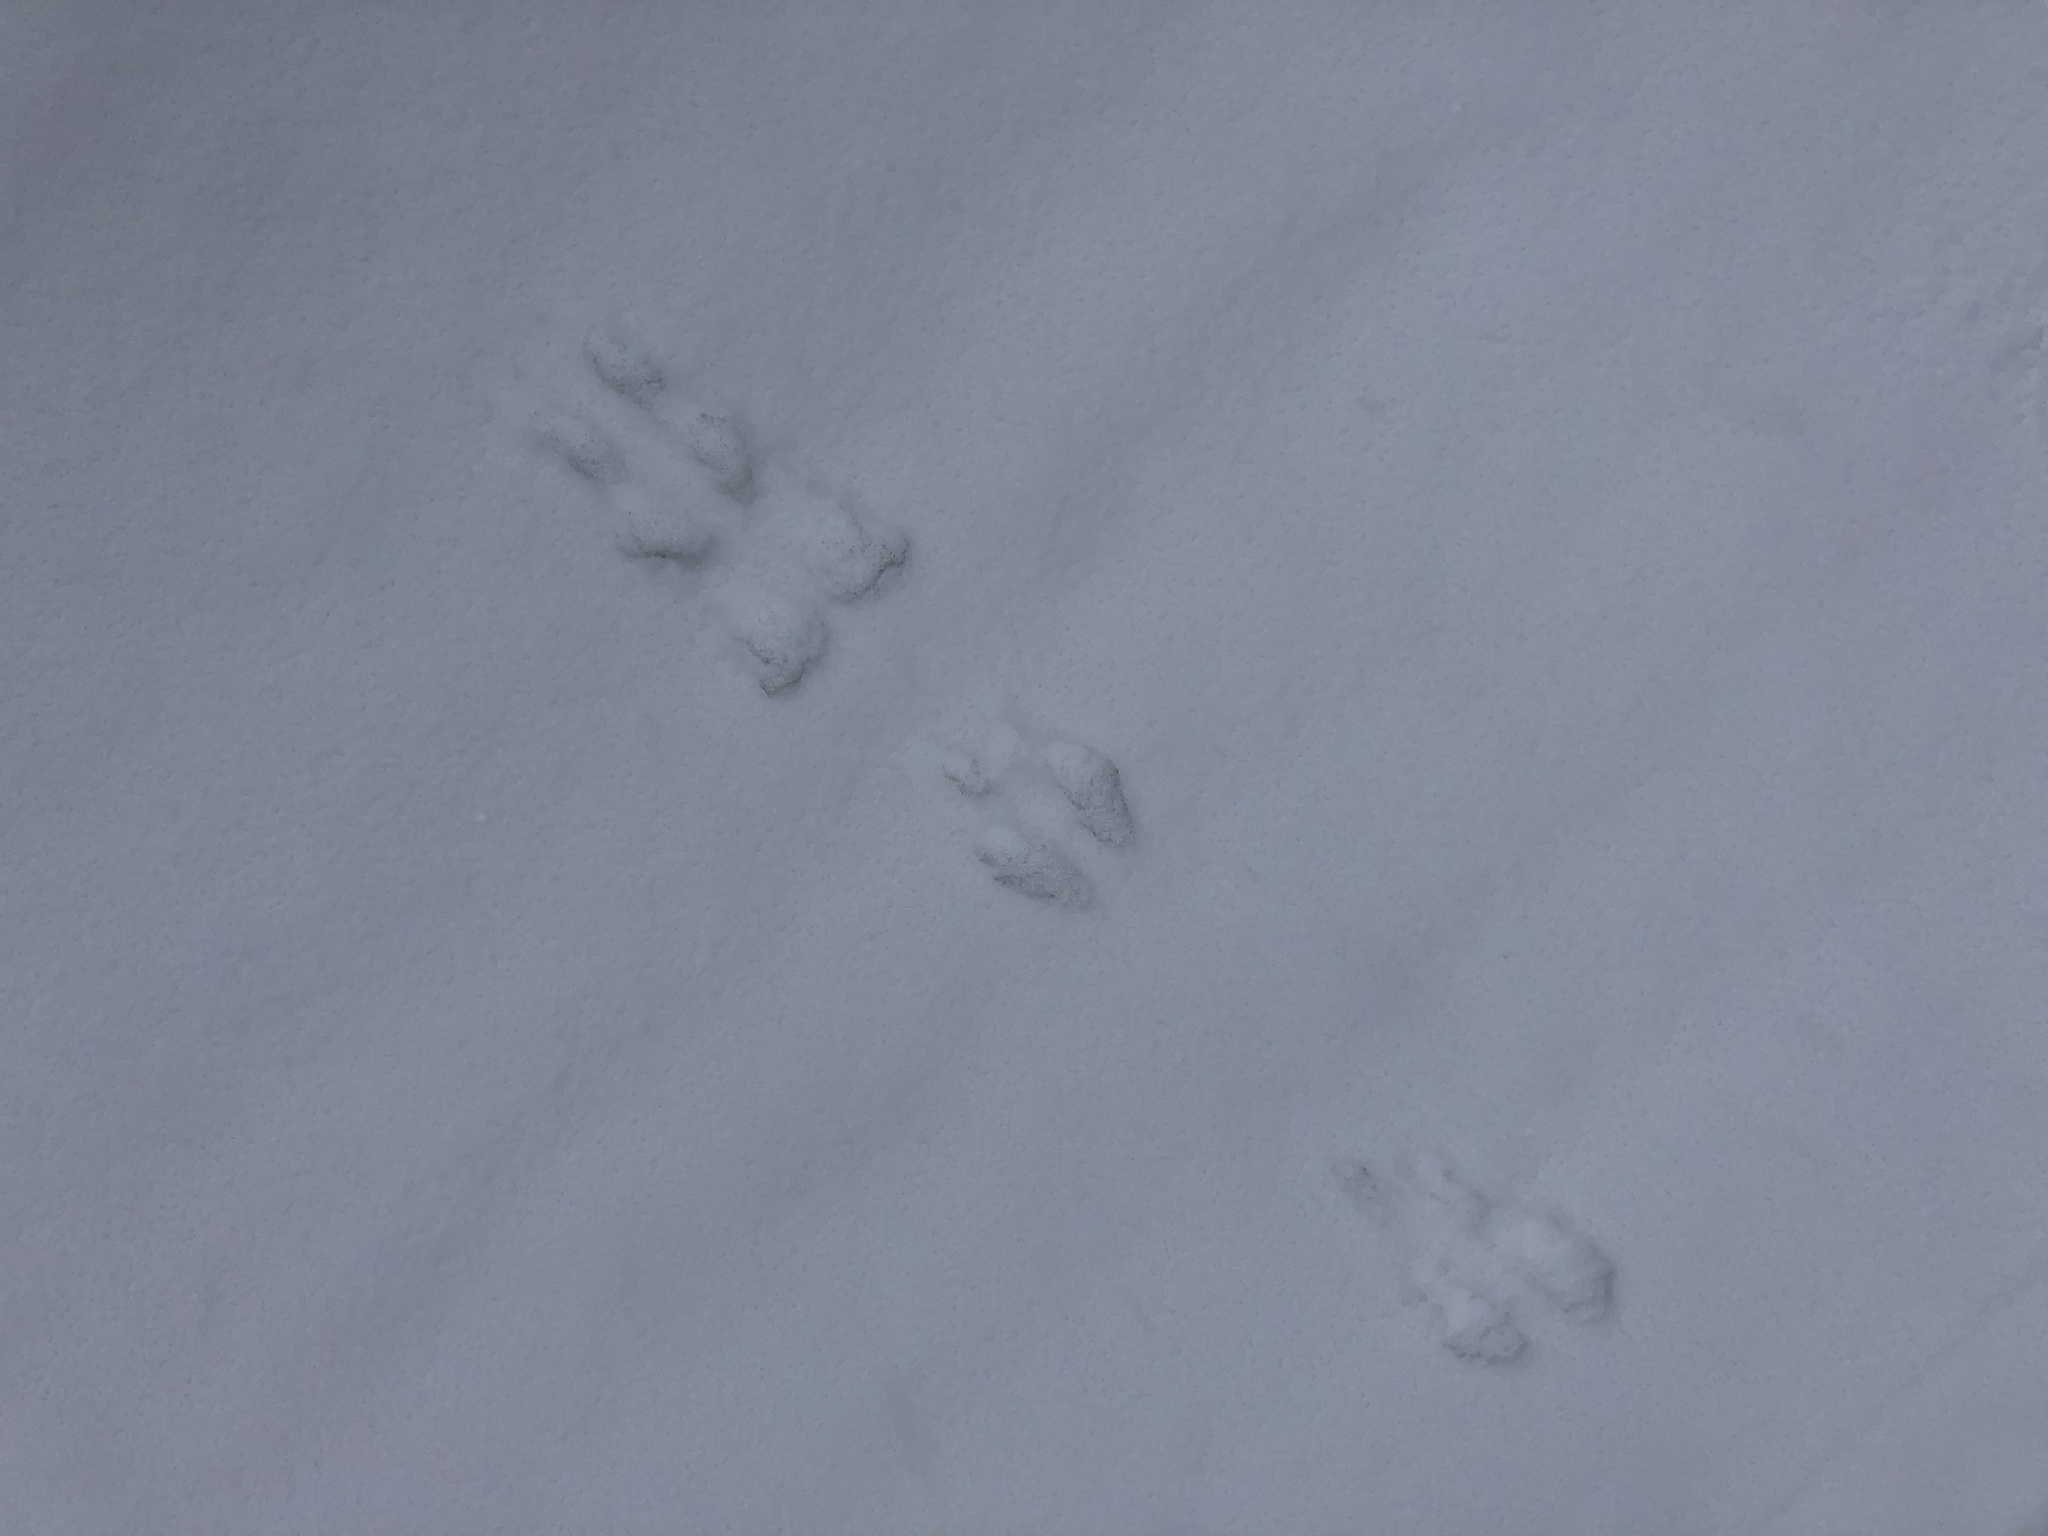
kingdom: Animalia
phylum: Chordata
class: Mammalia
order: Rodentia
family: Sciuridae
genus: Tamiasciurus
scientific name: Tamiasciurus hudsonicus
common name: Red squirrel
